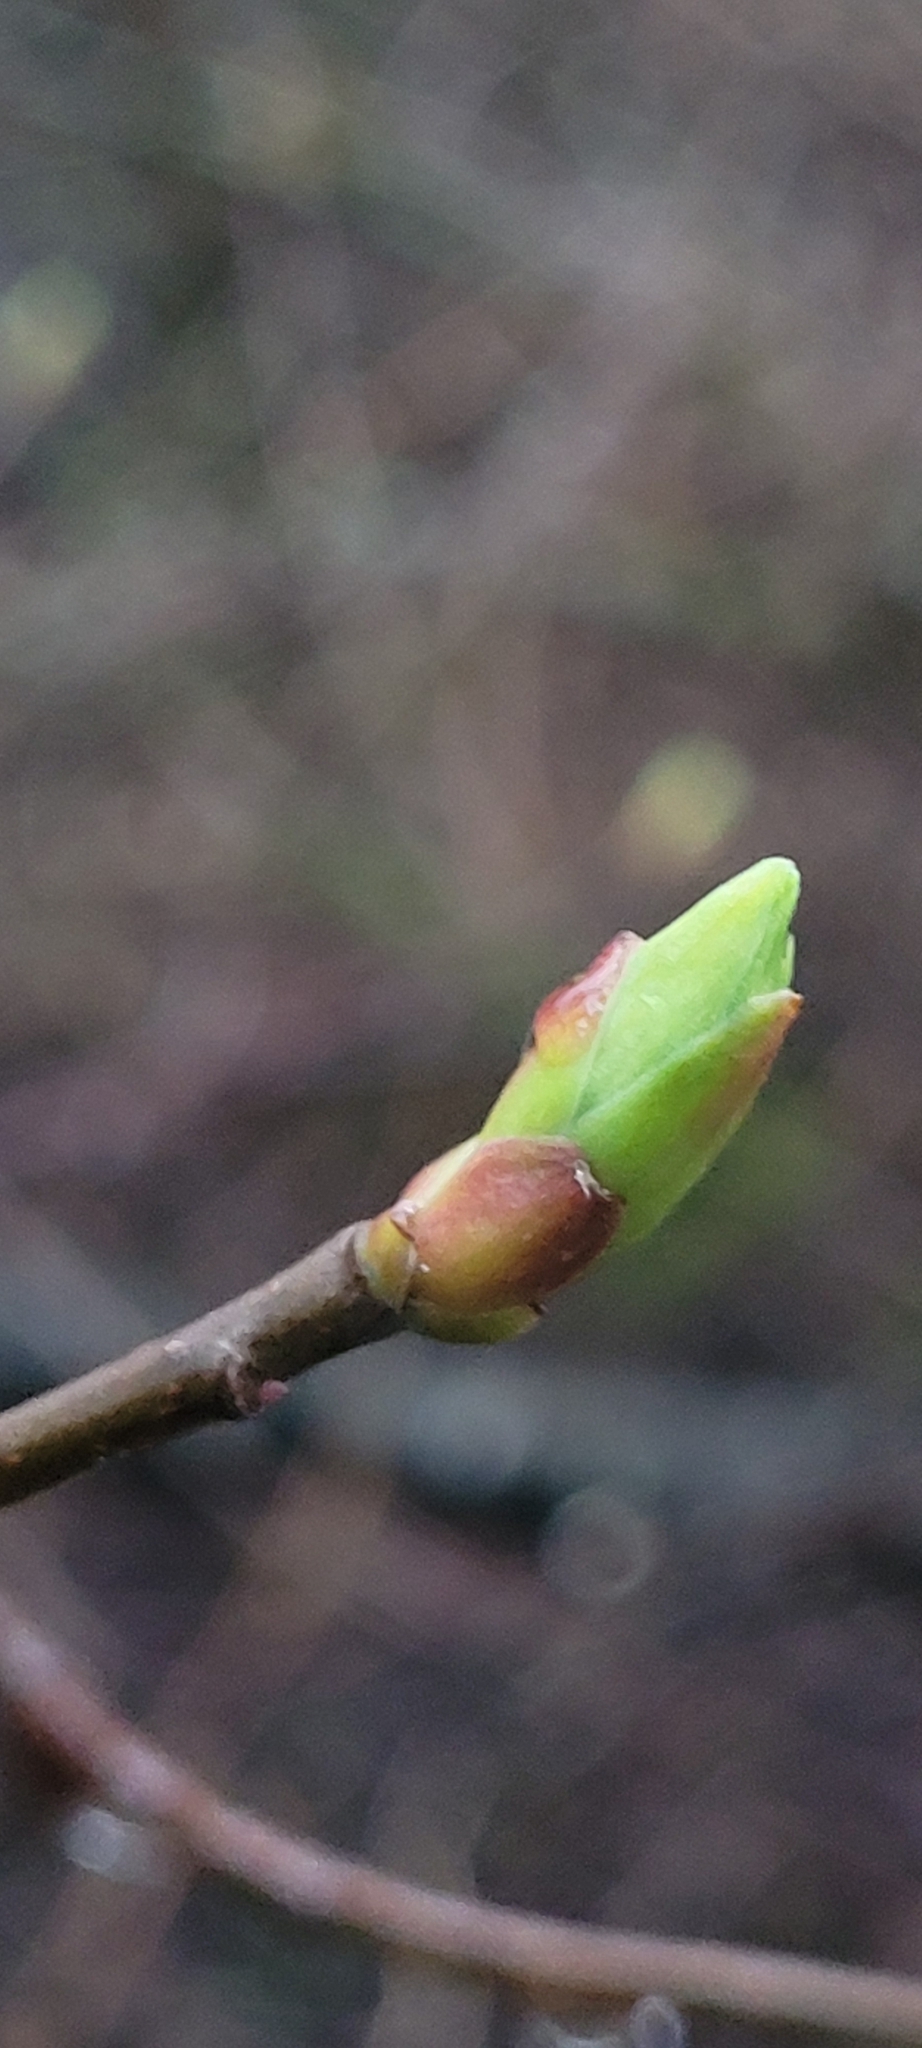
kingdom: Plantae
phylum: Tracheophyta
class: Magnoliopsida
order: Rosales
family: Rosaceae
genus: Oemleria
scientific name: Oemleria cerasiformis
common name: Osoberry
